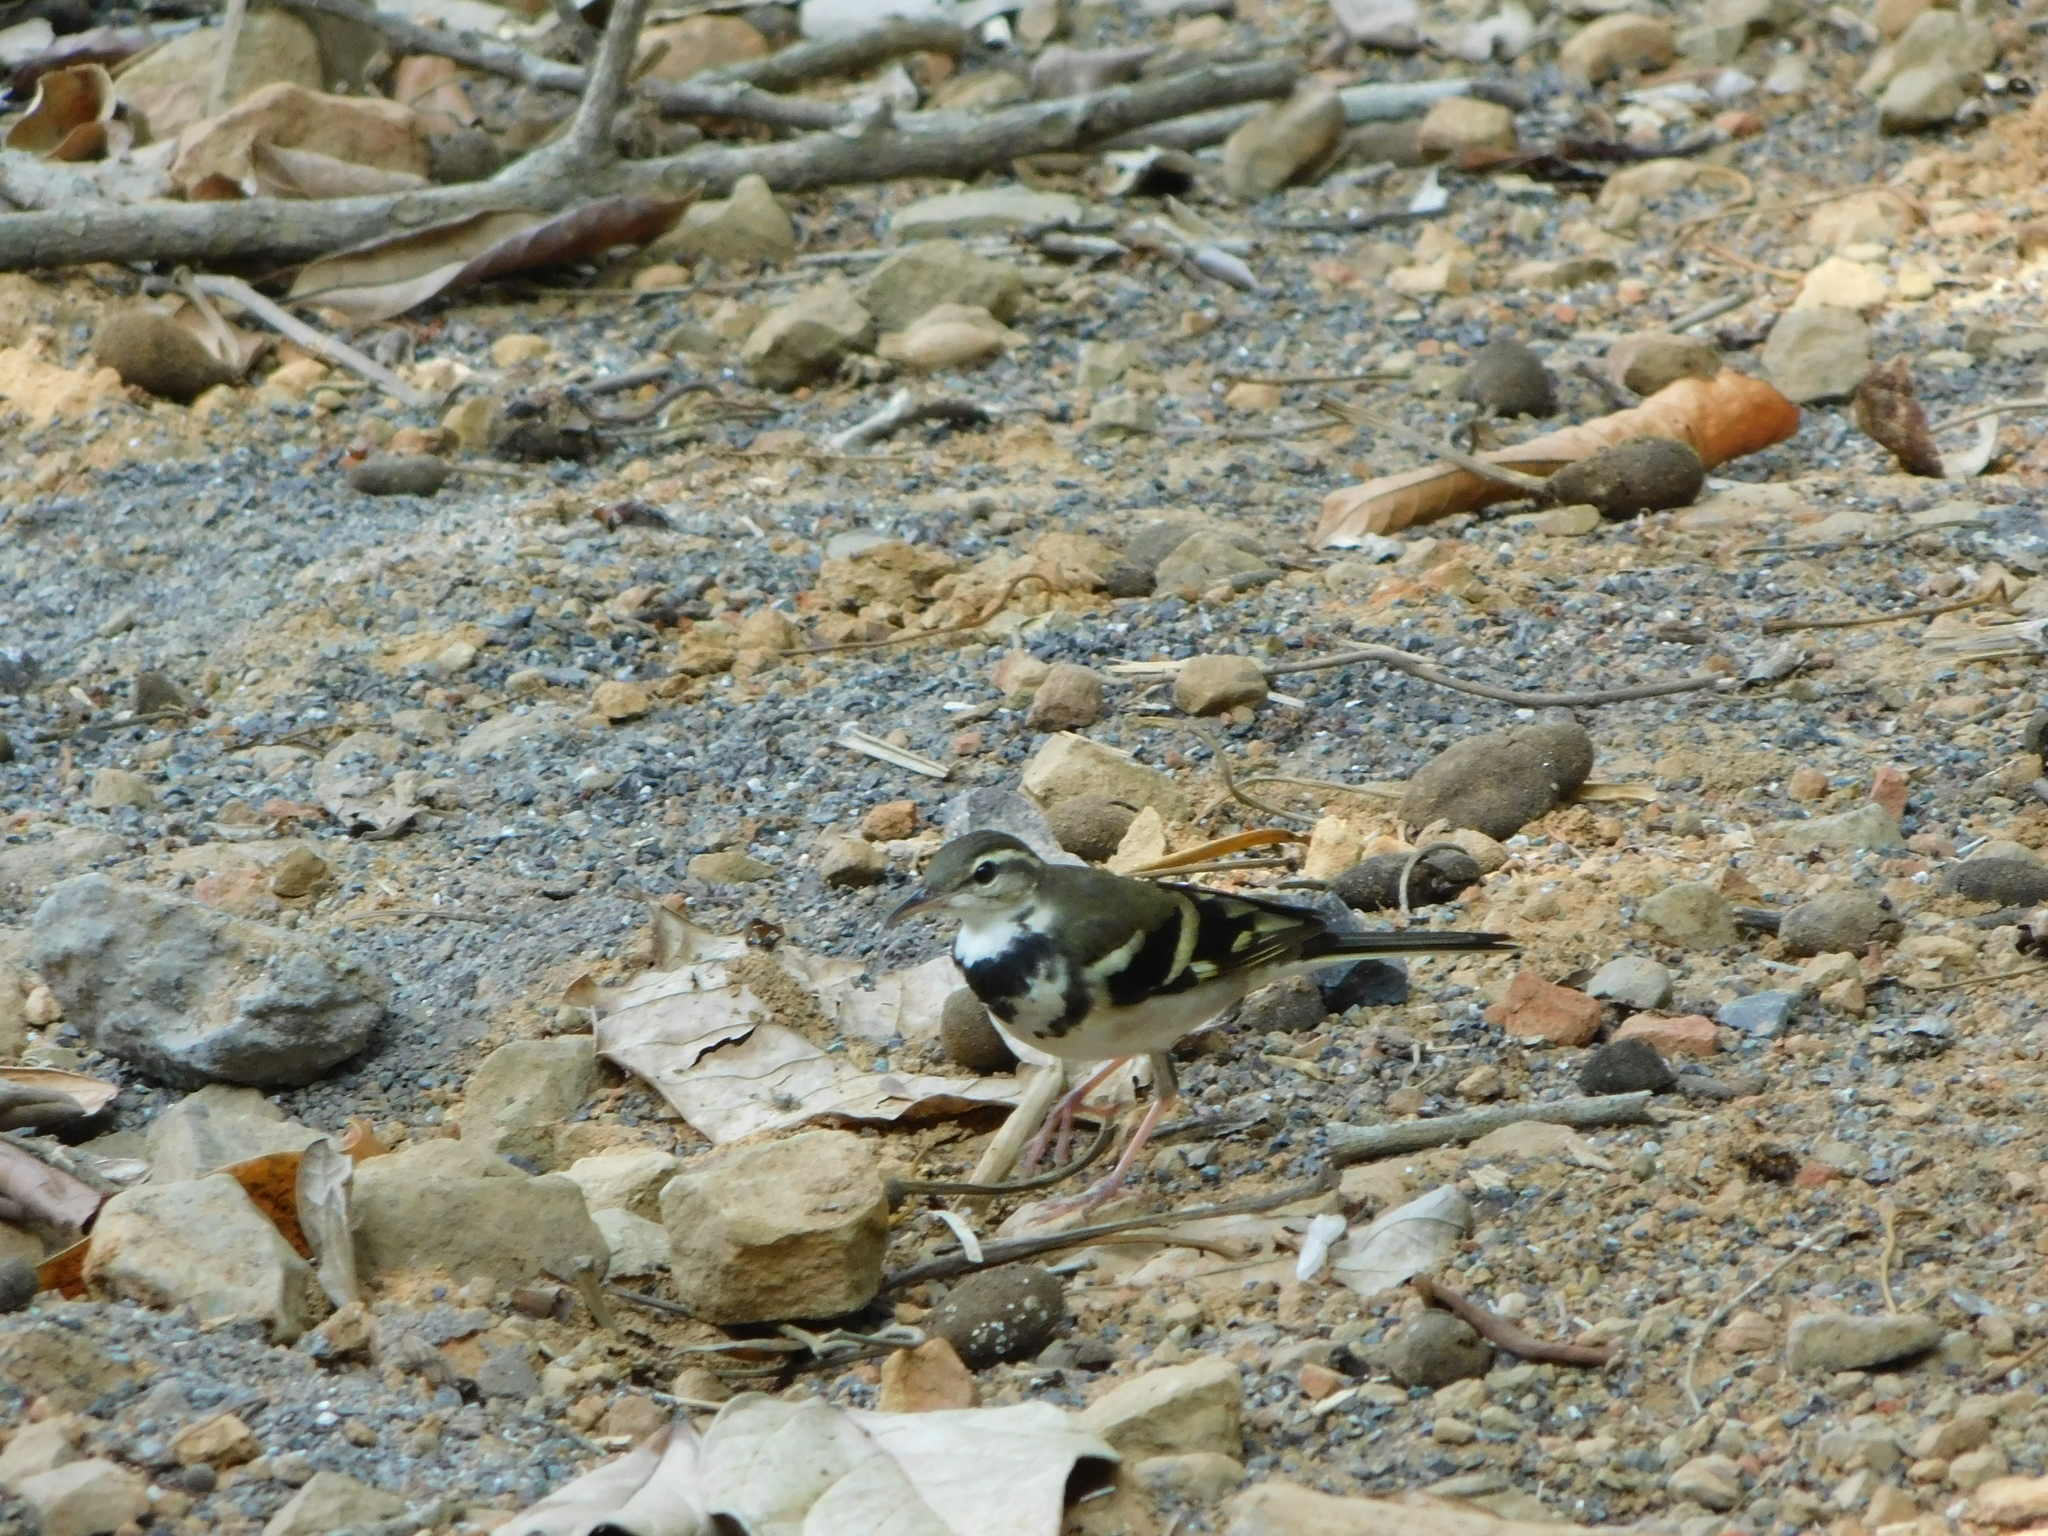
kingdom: Animalia
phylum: Chordata
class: Aves
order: Passeriformes
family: Motacillidae
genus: Dendronanthus
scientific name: Dendronanthus indicus
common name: Forest wagtail
